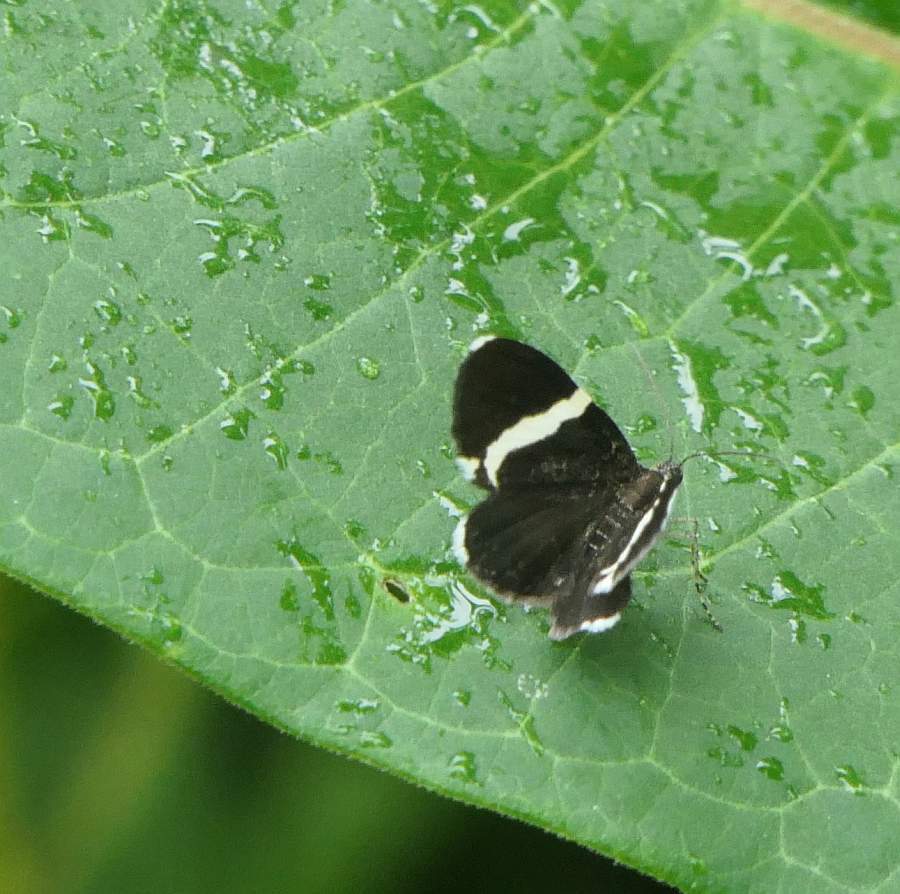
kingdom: Animalia
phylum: Arthropoda
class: Insecta
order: Lepidoptera
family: Geometridae
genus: Trichodezia
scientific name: Trichodezia albovittata
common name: White striped black
